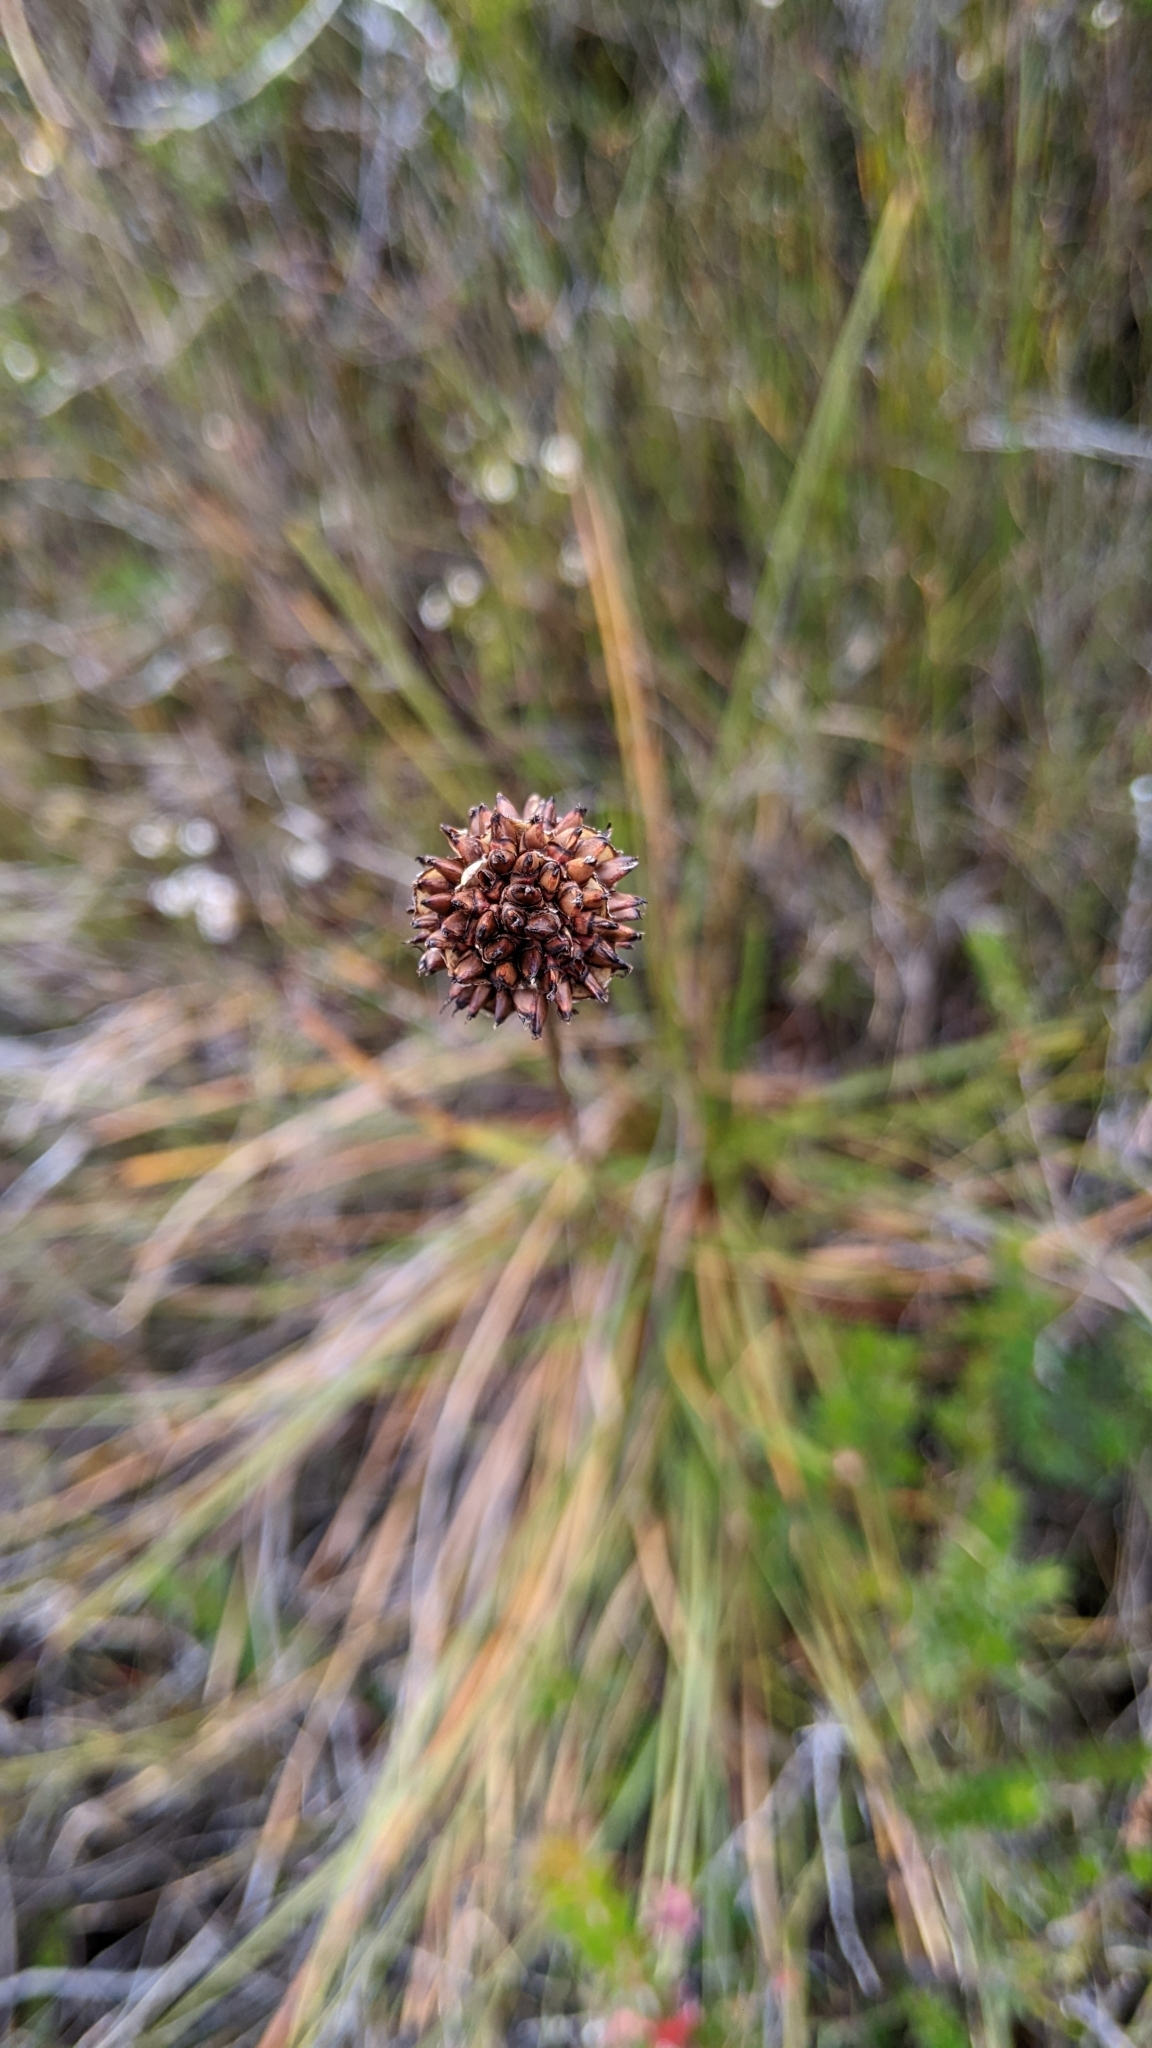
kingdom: Plantae
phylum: Tracheophyta
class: Liliopsida
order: Poales
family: Cyperaceae
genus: Gymnoschoenus
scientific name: Gymnoschoenus sphaerocephalus
